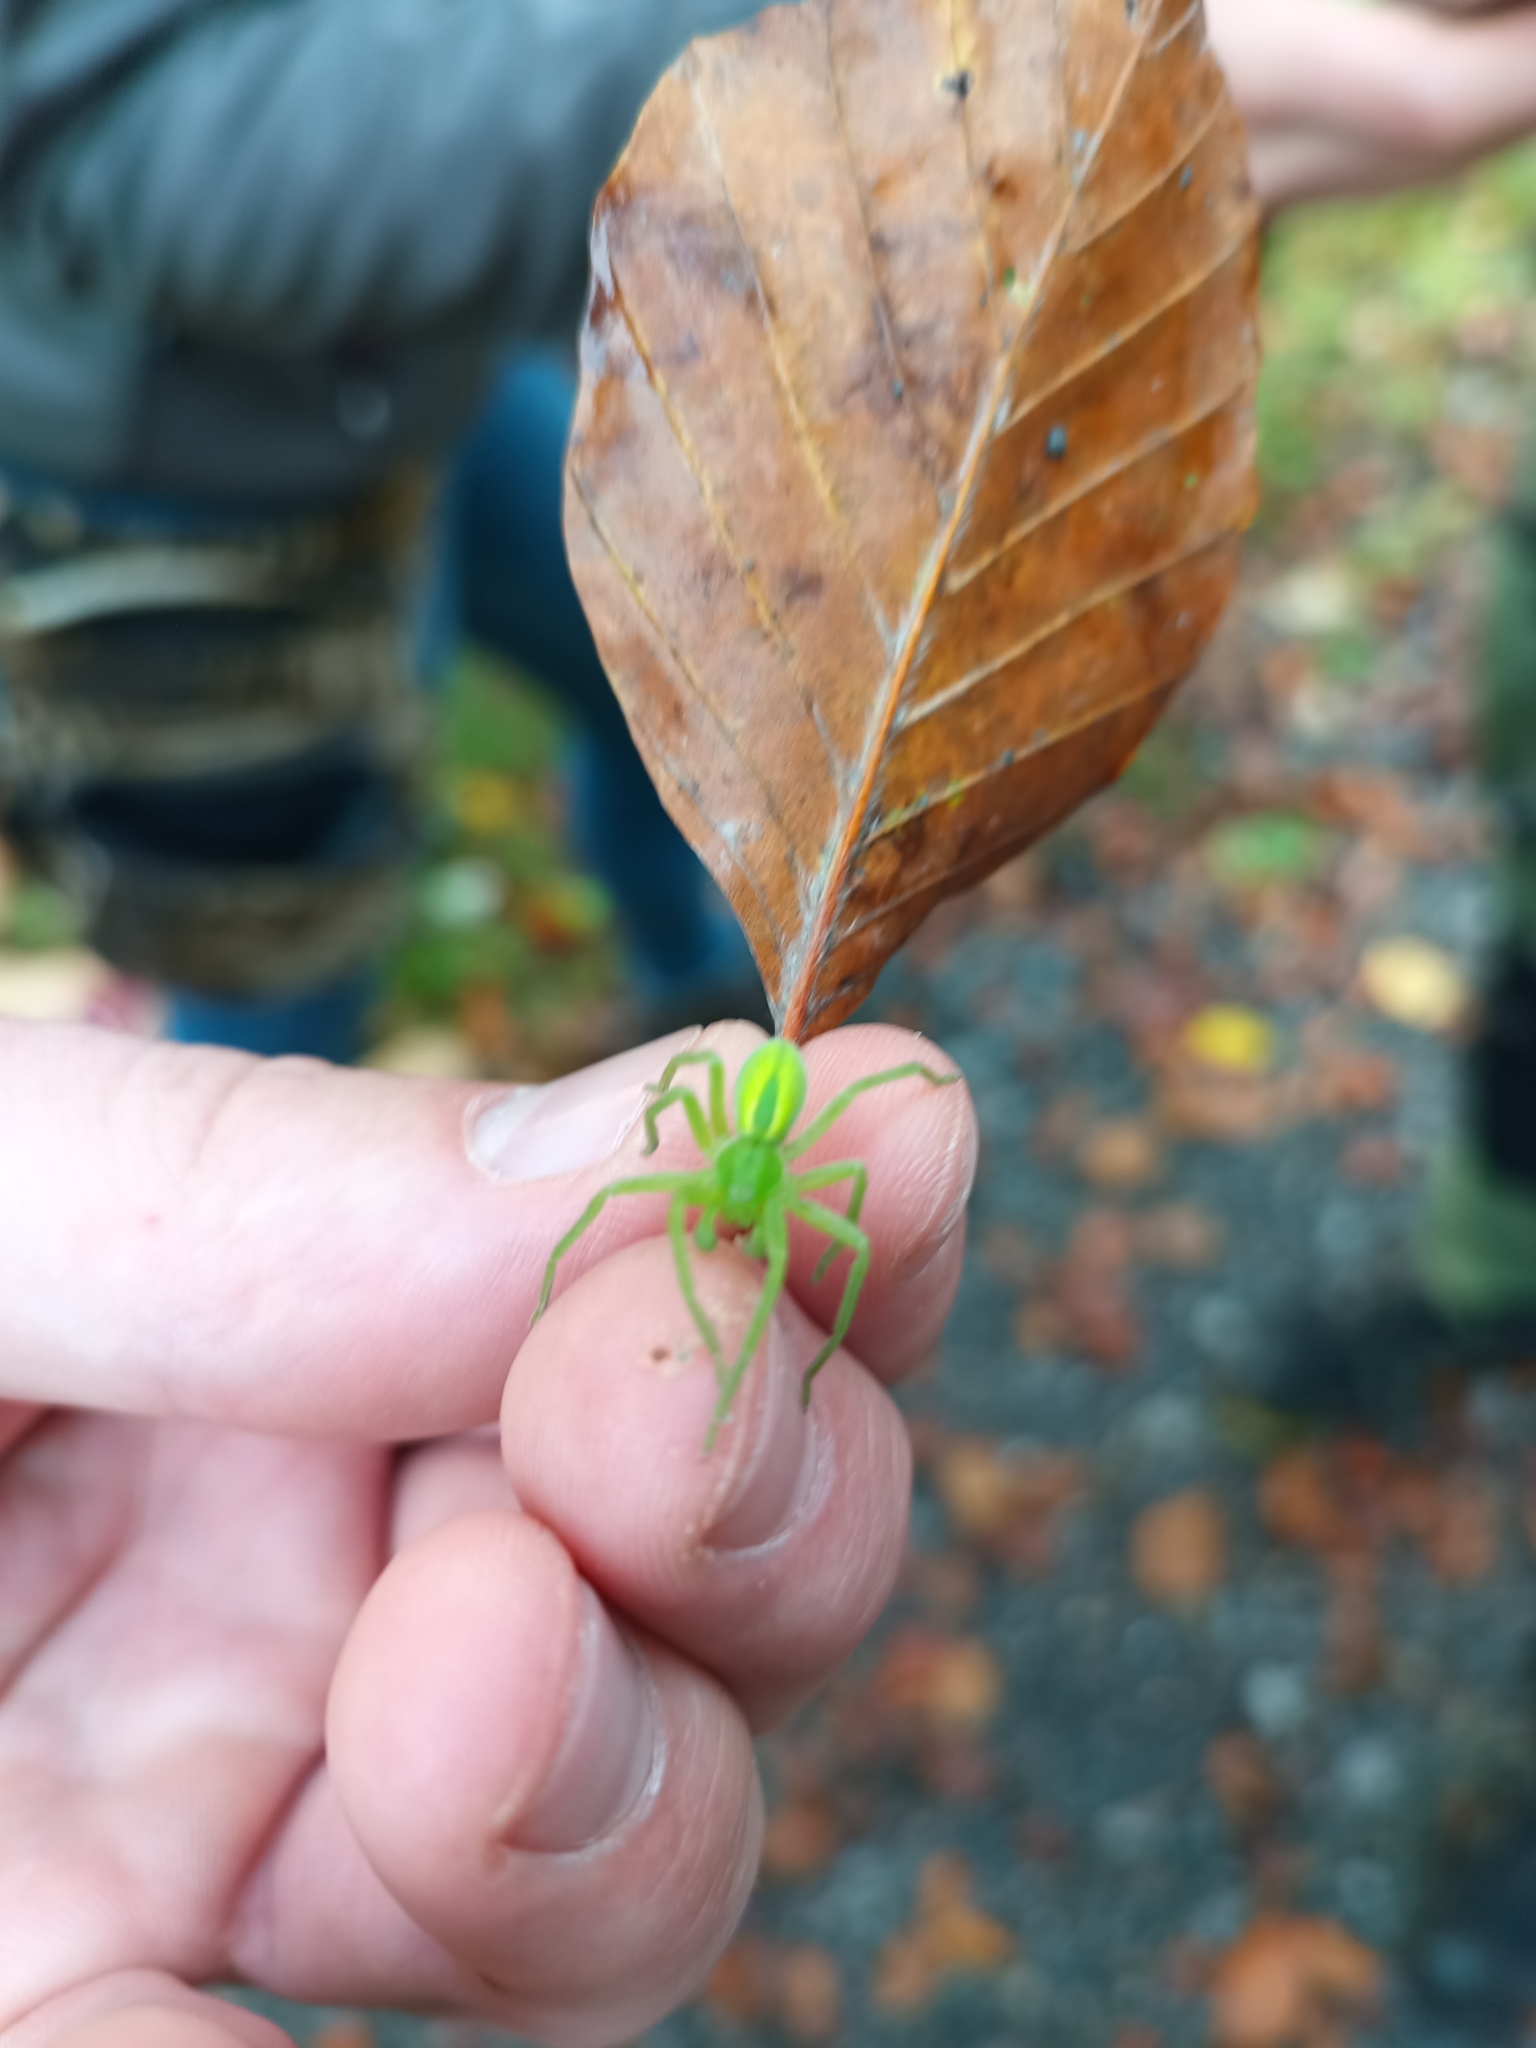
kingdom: Animalia
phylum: Arthropoda
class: Arachnida
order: Araneae
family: Sparassidae
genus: Micrommata
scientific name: Micrommata virescens
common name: Green spider
